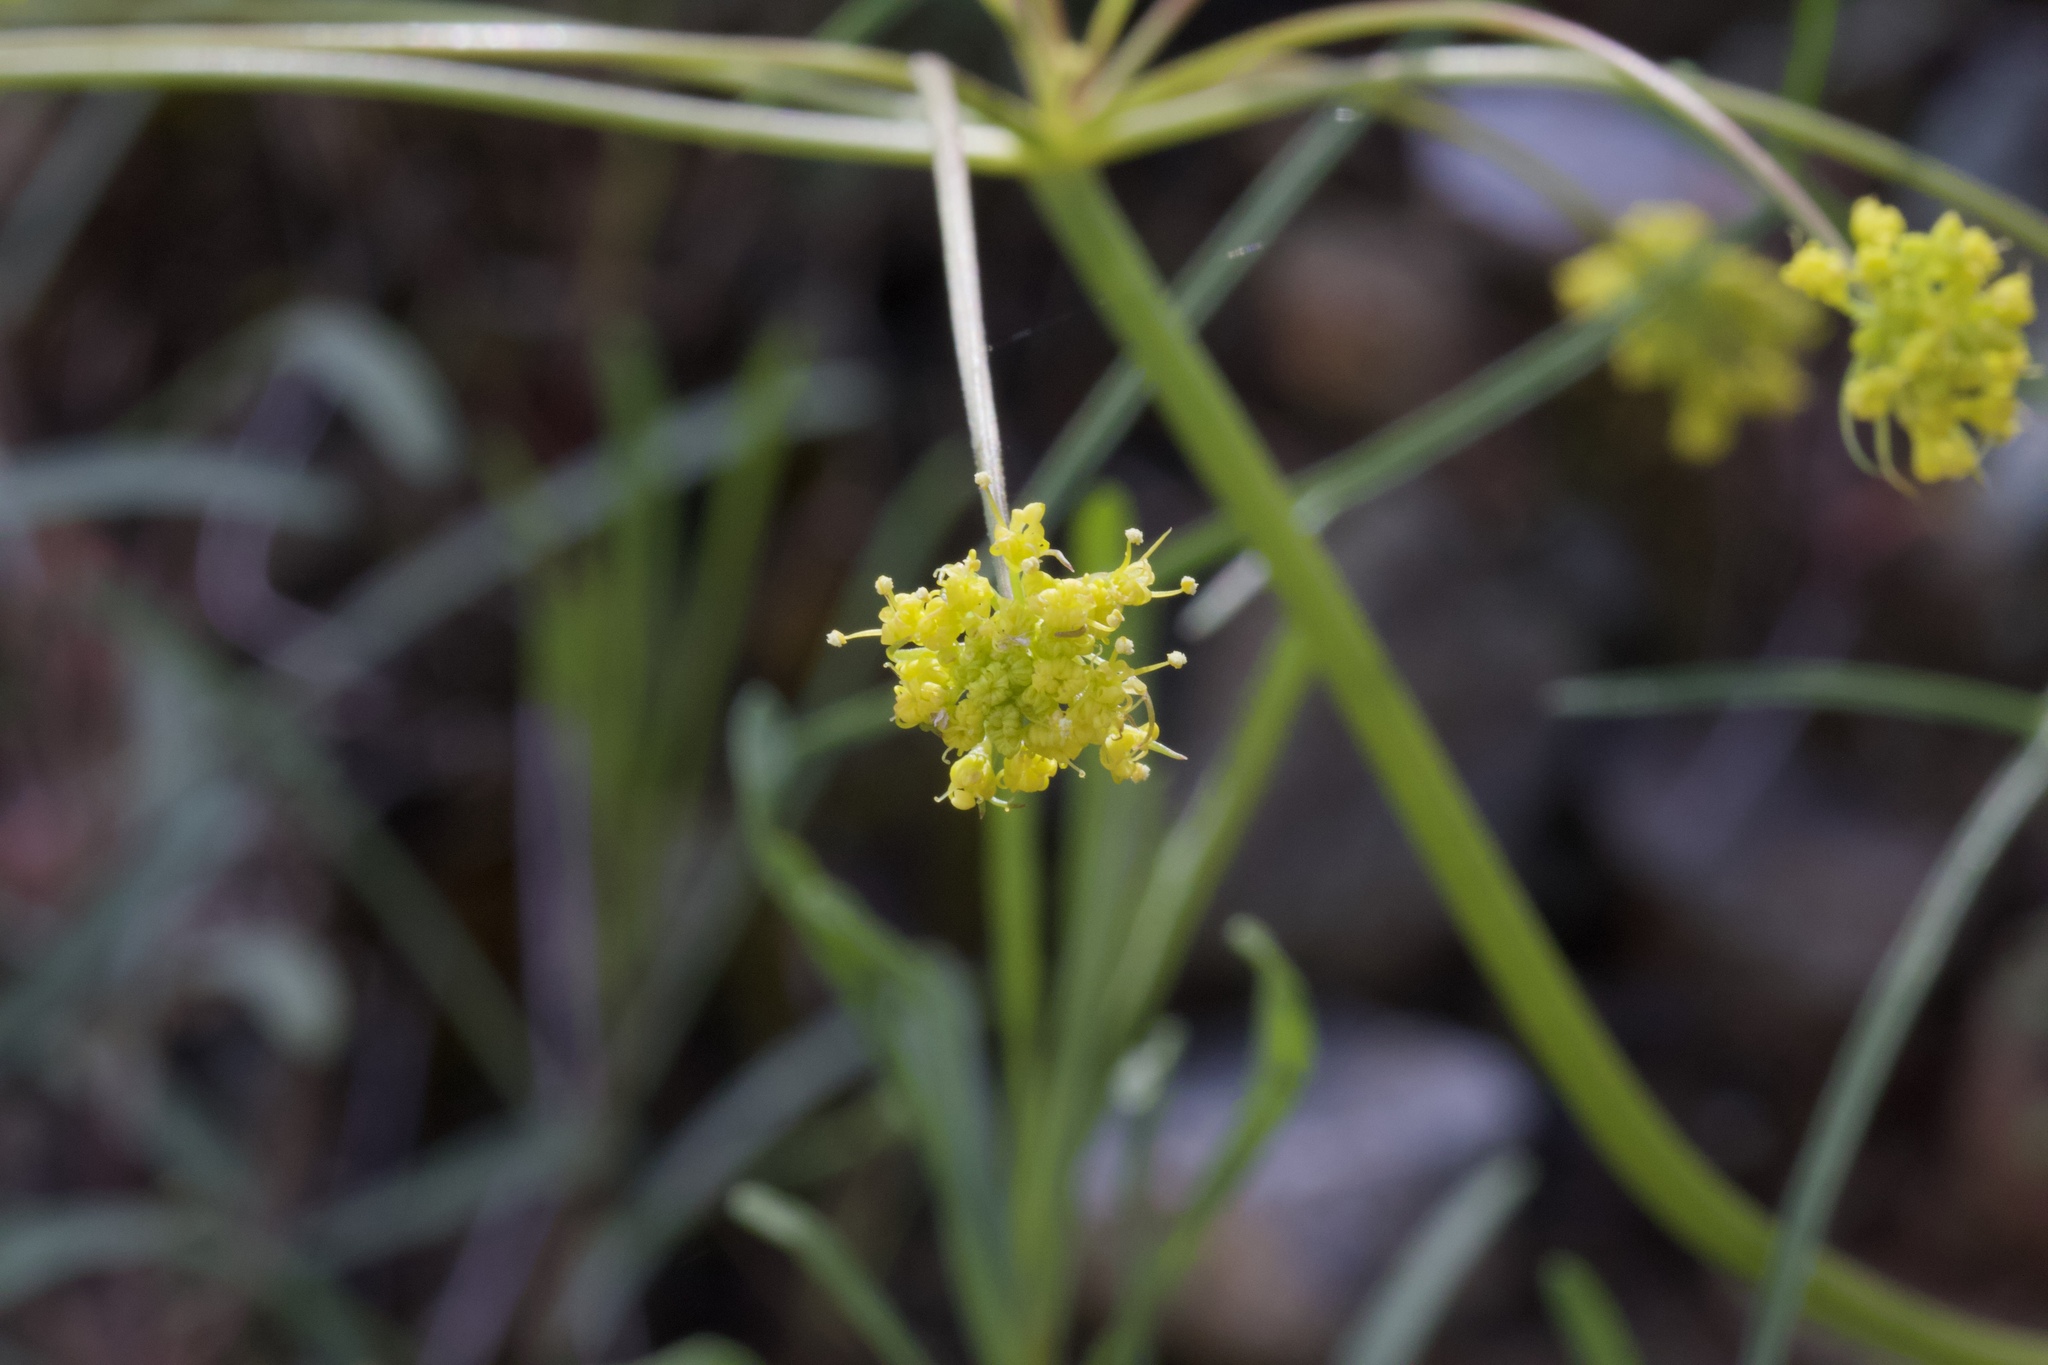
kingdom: Plantae
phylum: Tracheophyta
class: Magnoliopsida
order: Apiales
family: Apiaceae
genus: Lomatium
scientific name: Lomatium marginatum
